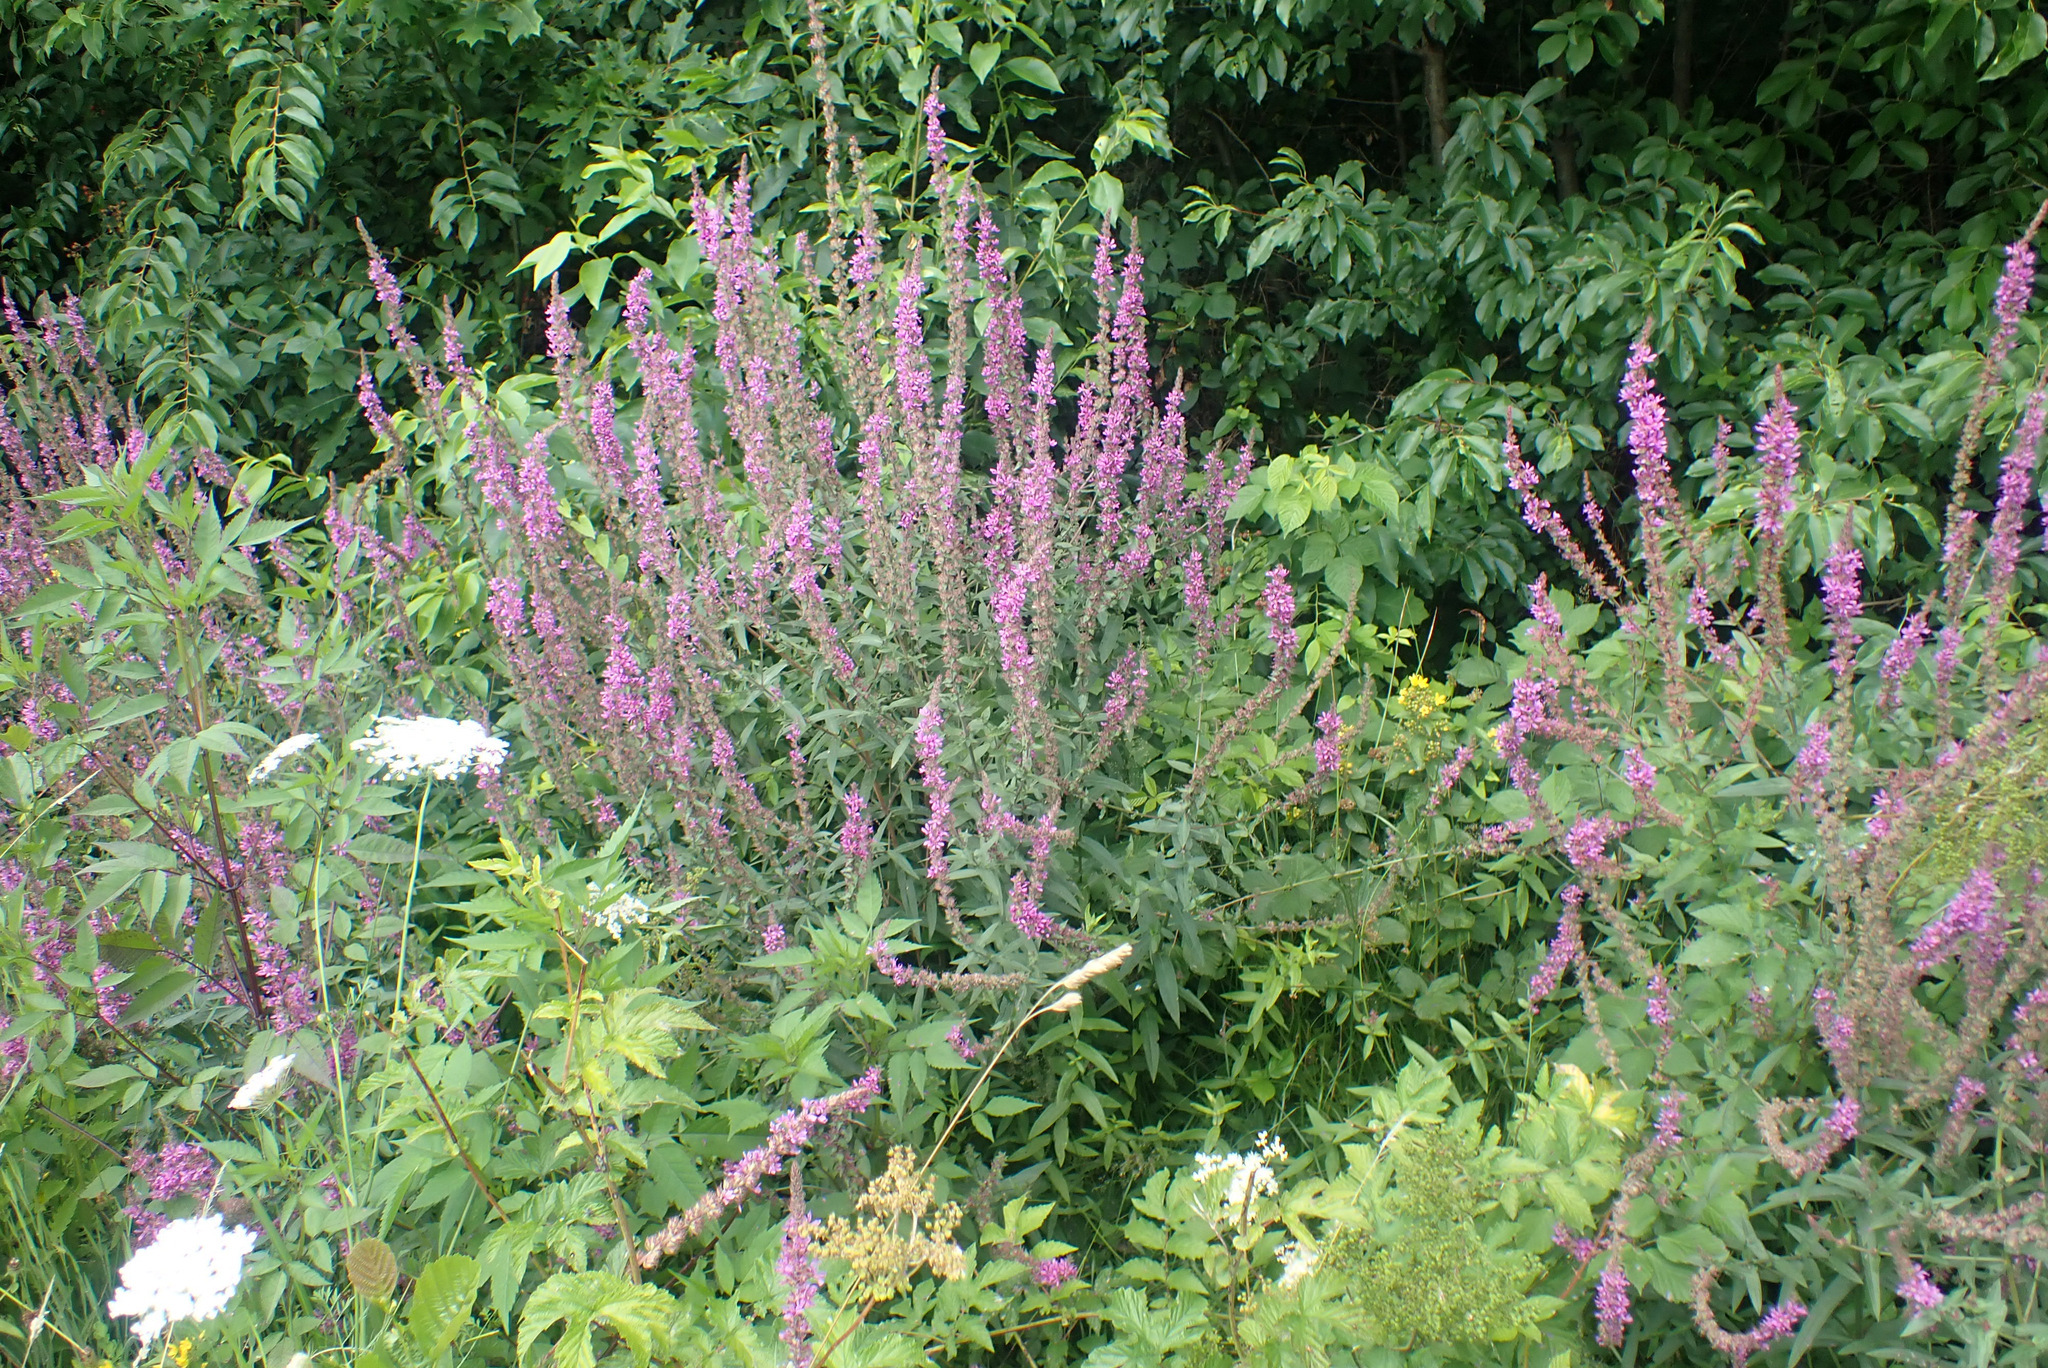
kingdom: Plantae
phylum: Tracheophyta
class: Magnoliopsida
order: Myrtales
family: Lythraceae
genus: Lythrum
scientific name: Lythrum salicaria
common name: Purple loosestrife
